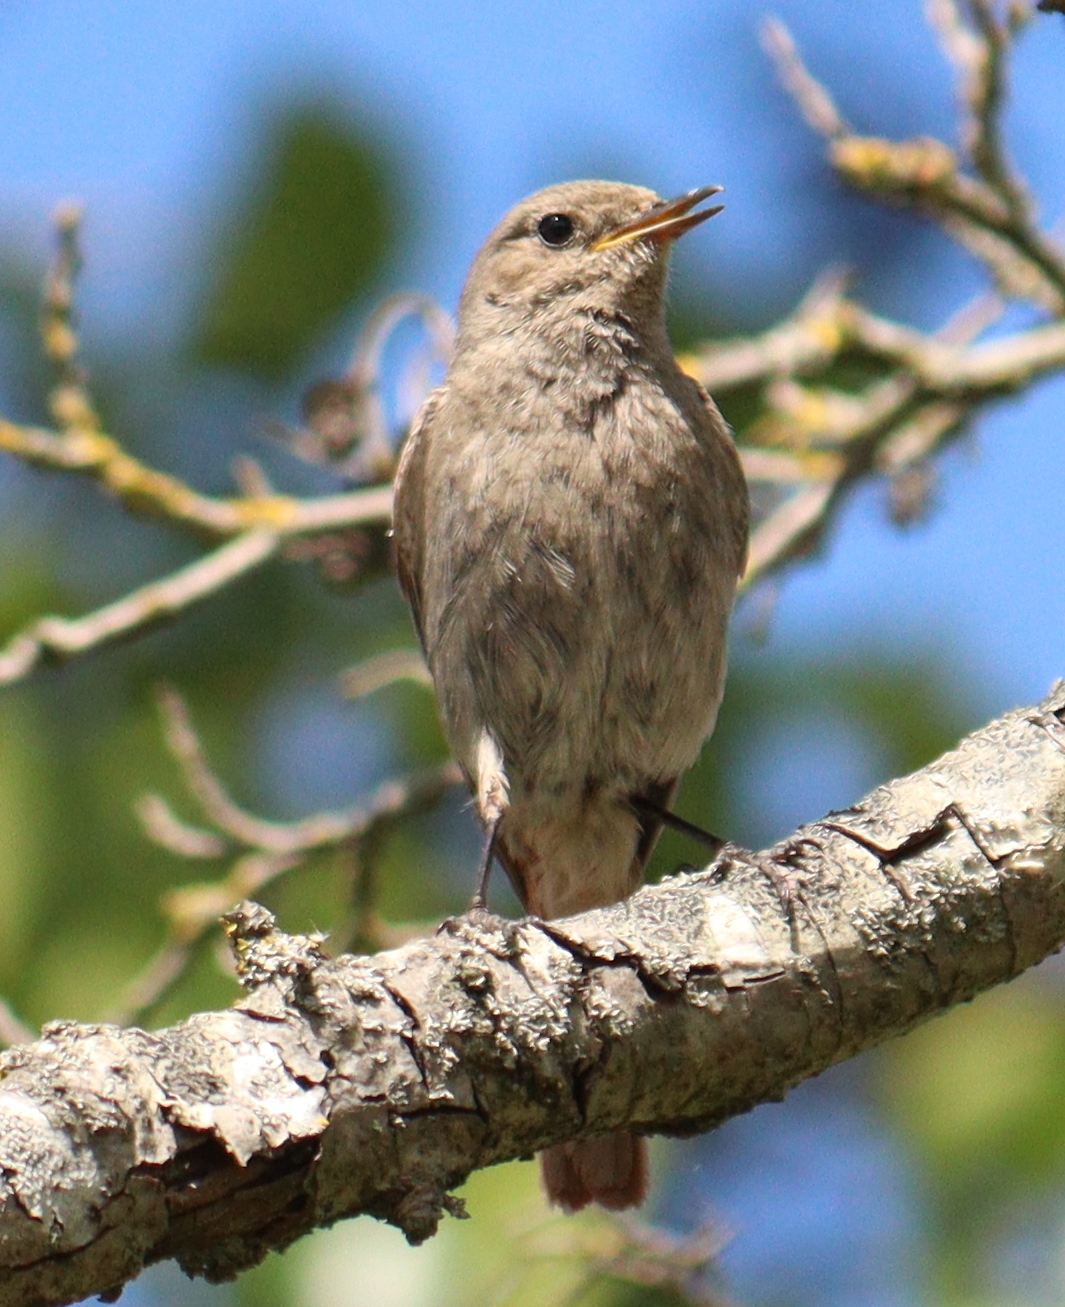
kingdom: Animalia
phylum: Chordata
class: Aves
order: Passeriformes
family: Muscicapidae
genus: Phoenicurus
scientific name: Phoenicurus ochruros
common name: Black redstart
